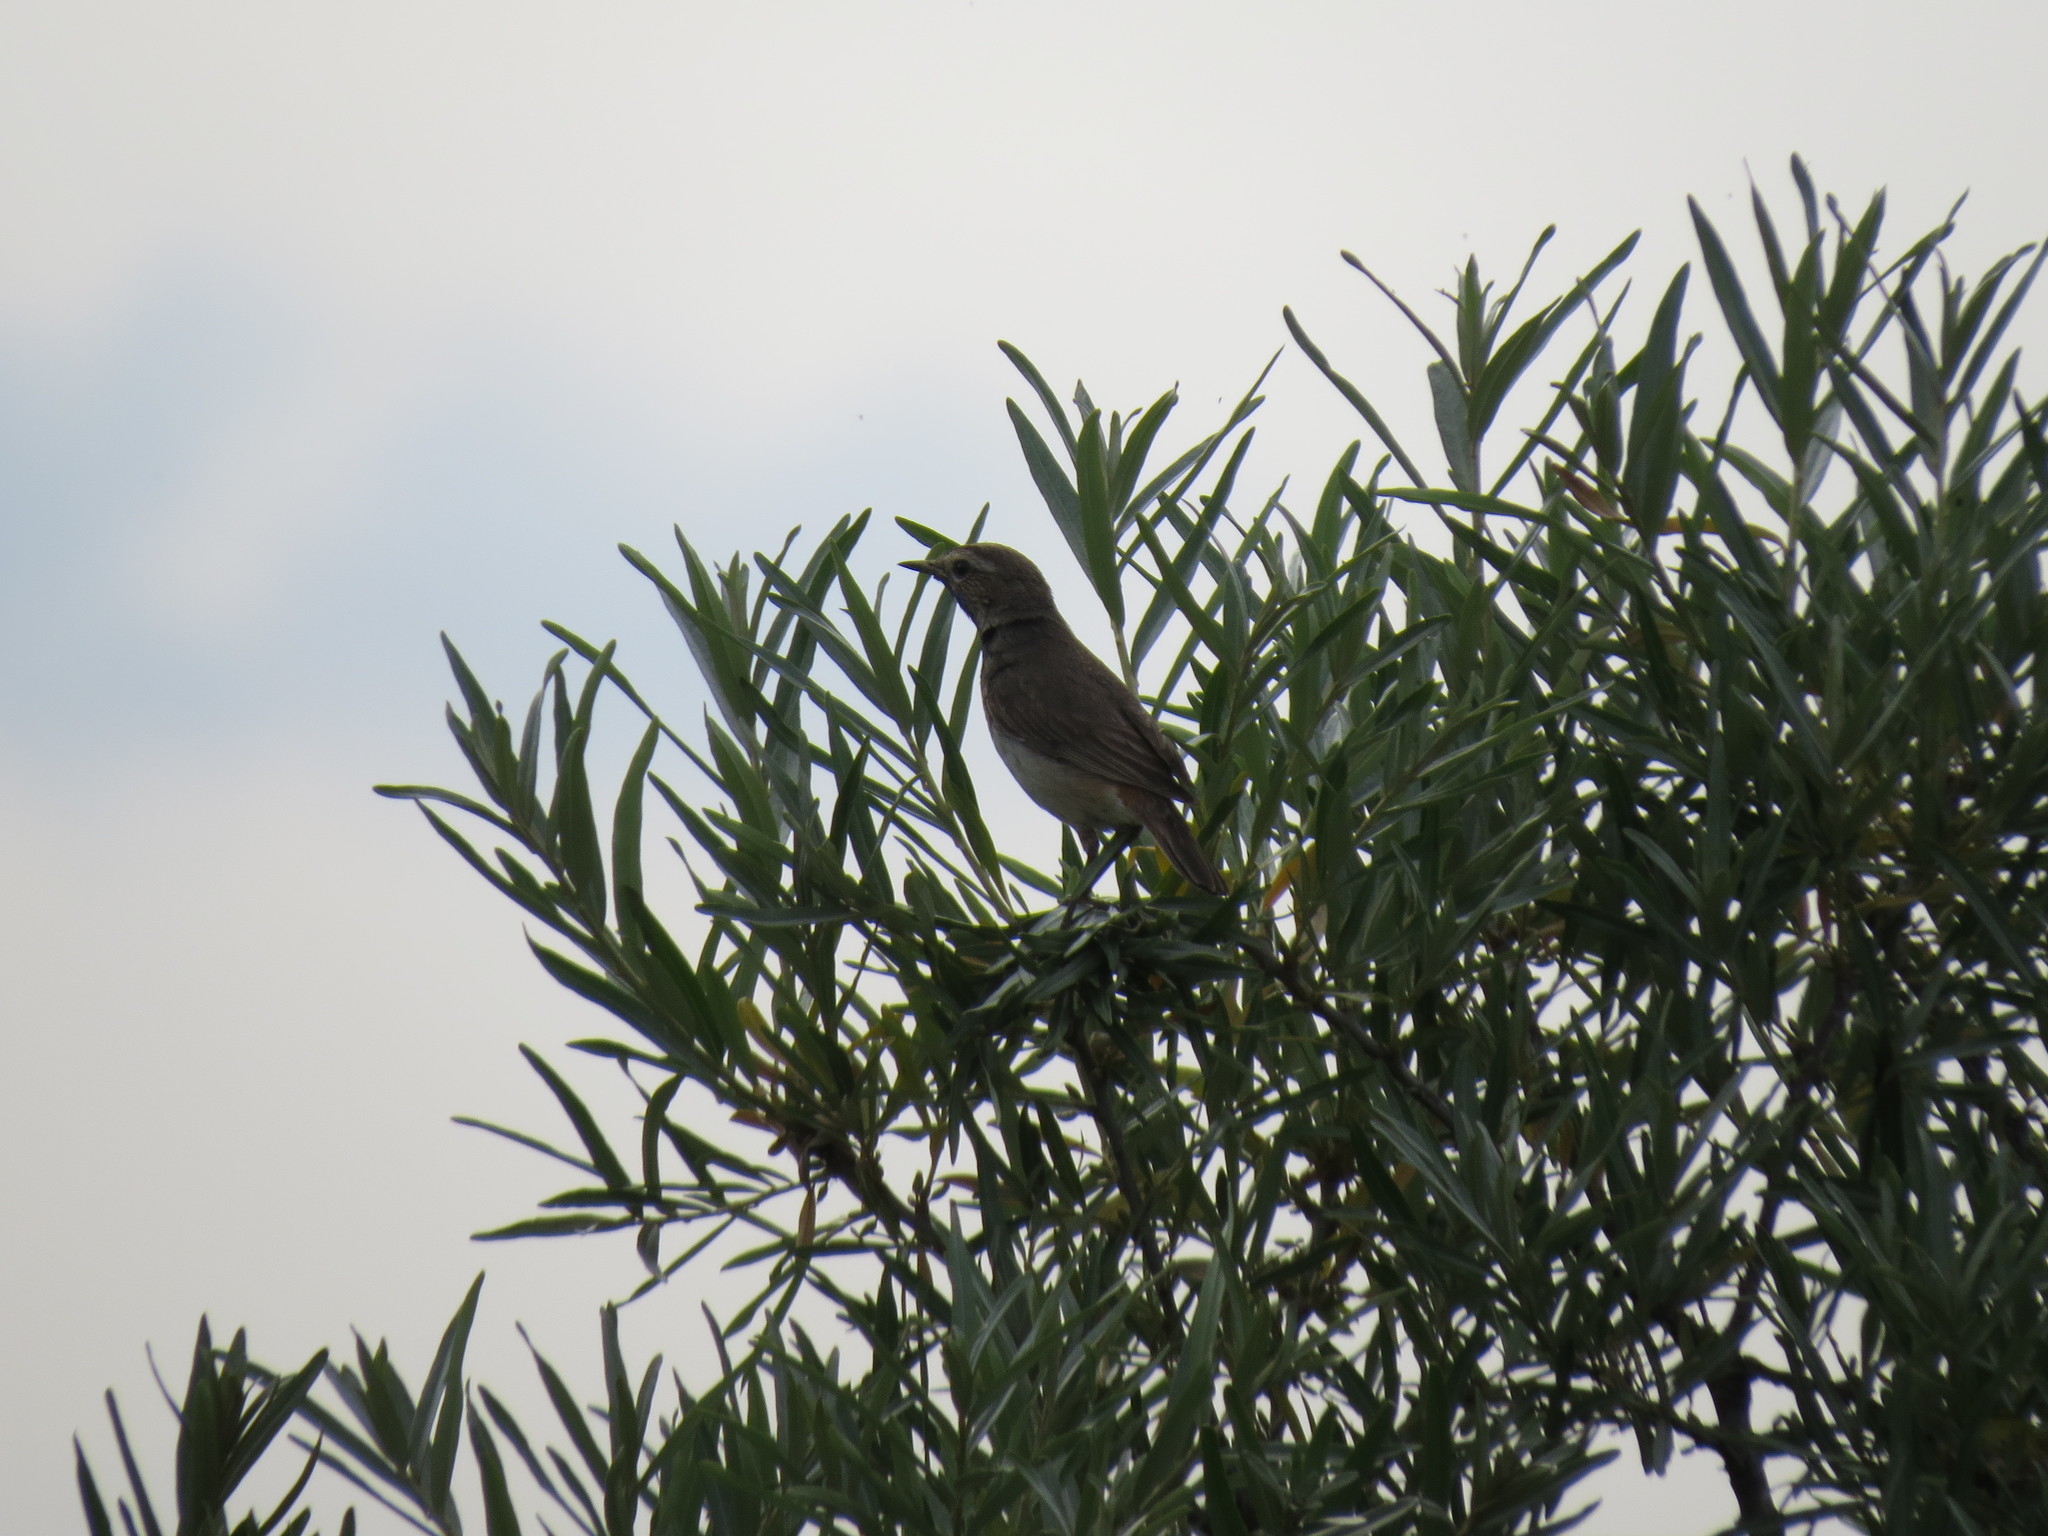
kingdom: Animalia
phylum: Chordata
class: Aves
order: Passeriformes
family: Muscicapidae
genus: Luscinia
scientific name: Luscinia svecica
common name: Bluethroat
